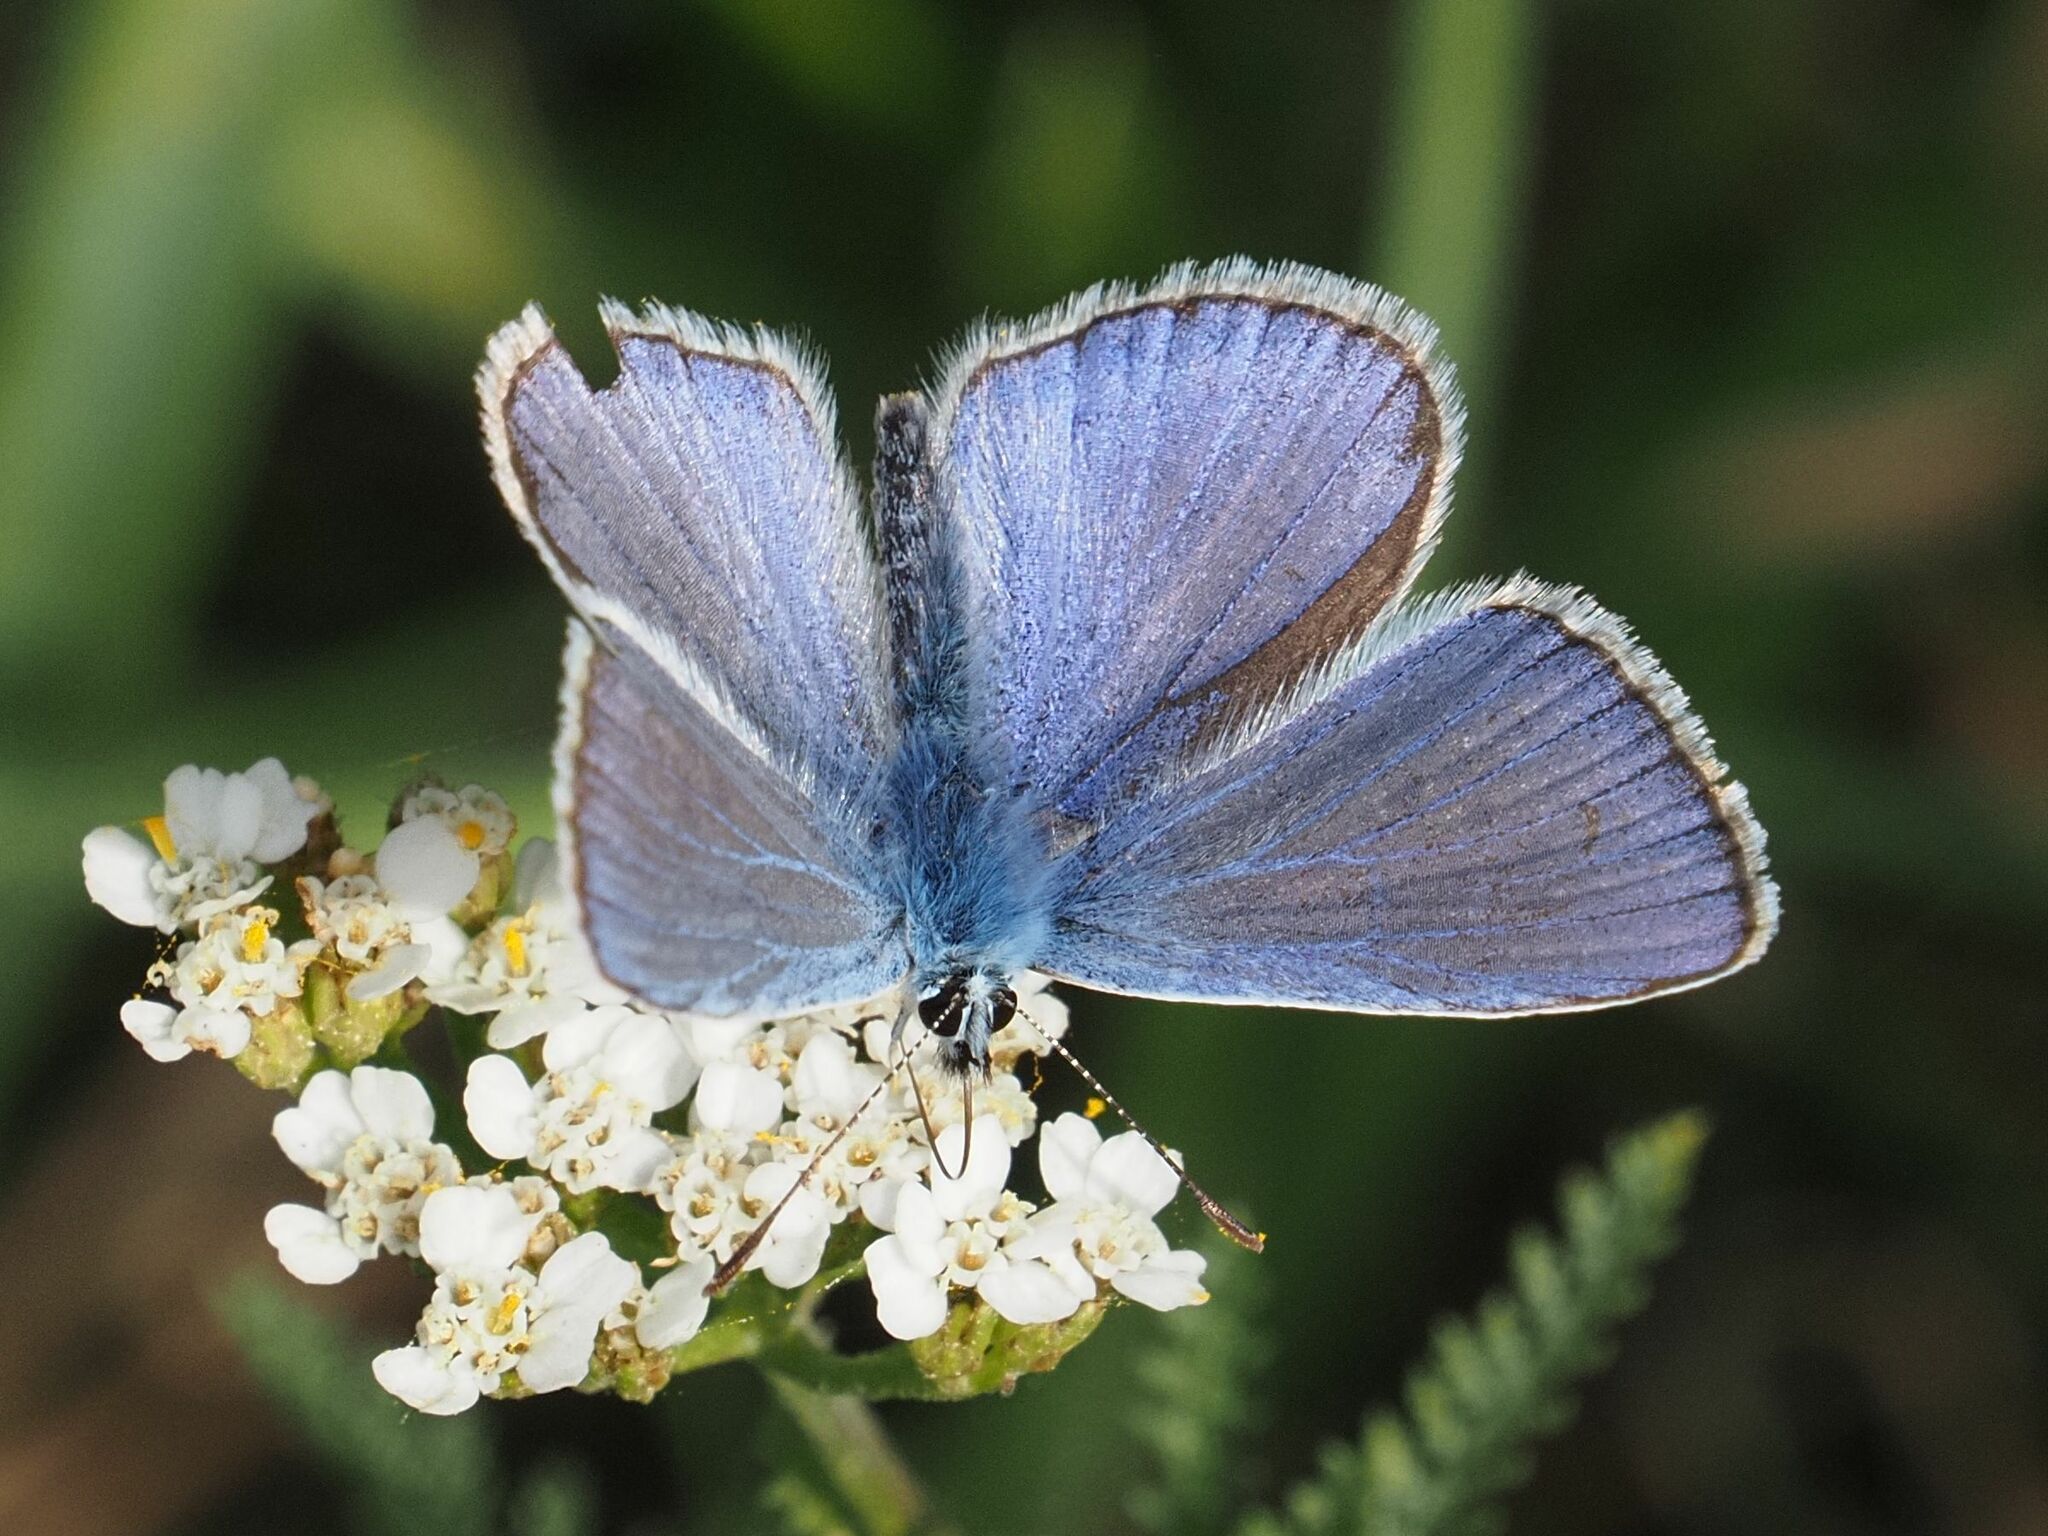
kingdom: Animalia
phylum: Arthropoda
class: Insecta
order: Lepidoptera
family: Lycaenidae
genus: Polyommatus
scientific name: Polyommatus icarus
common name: Common blue
